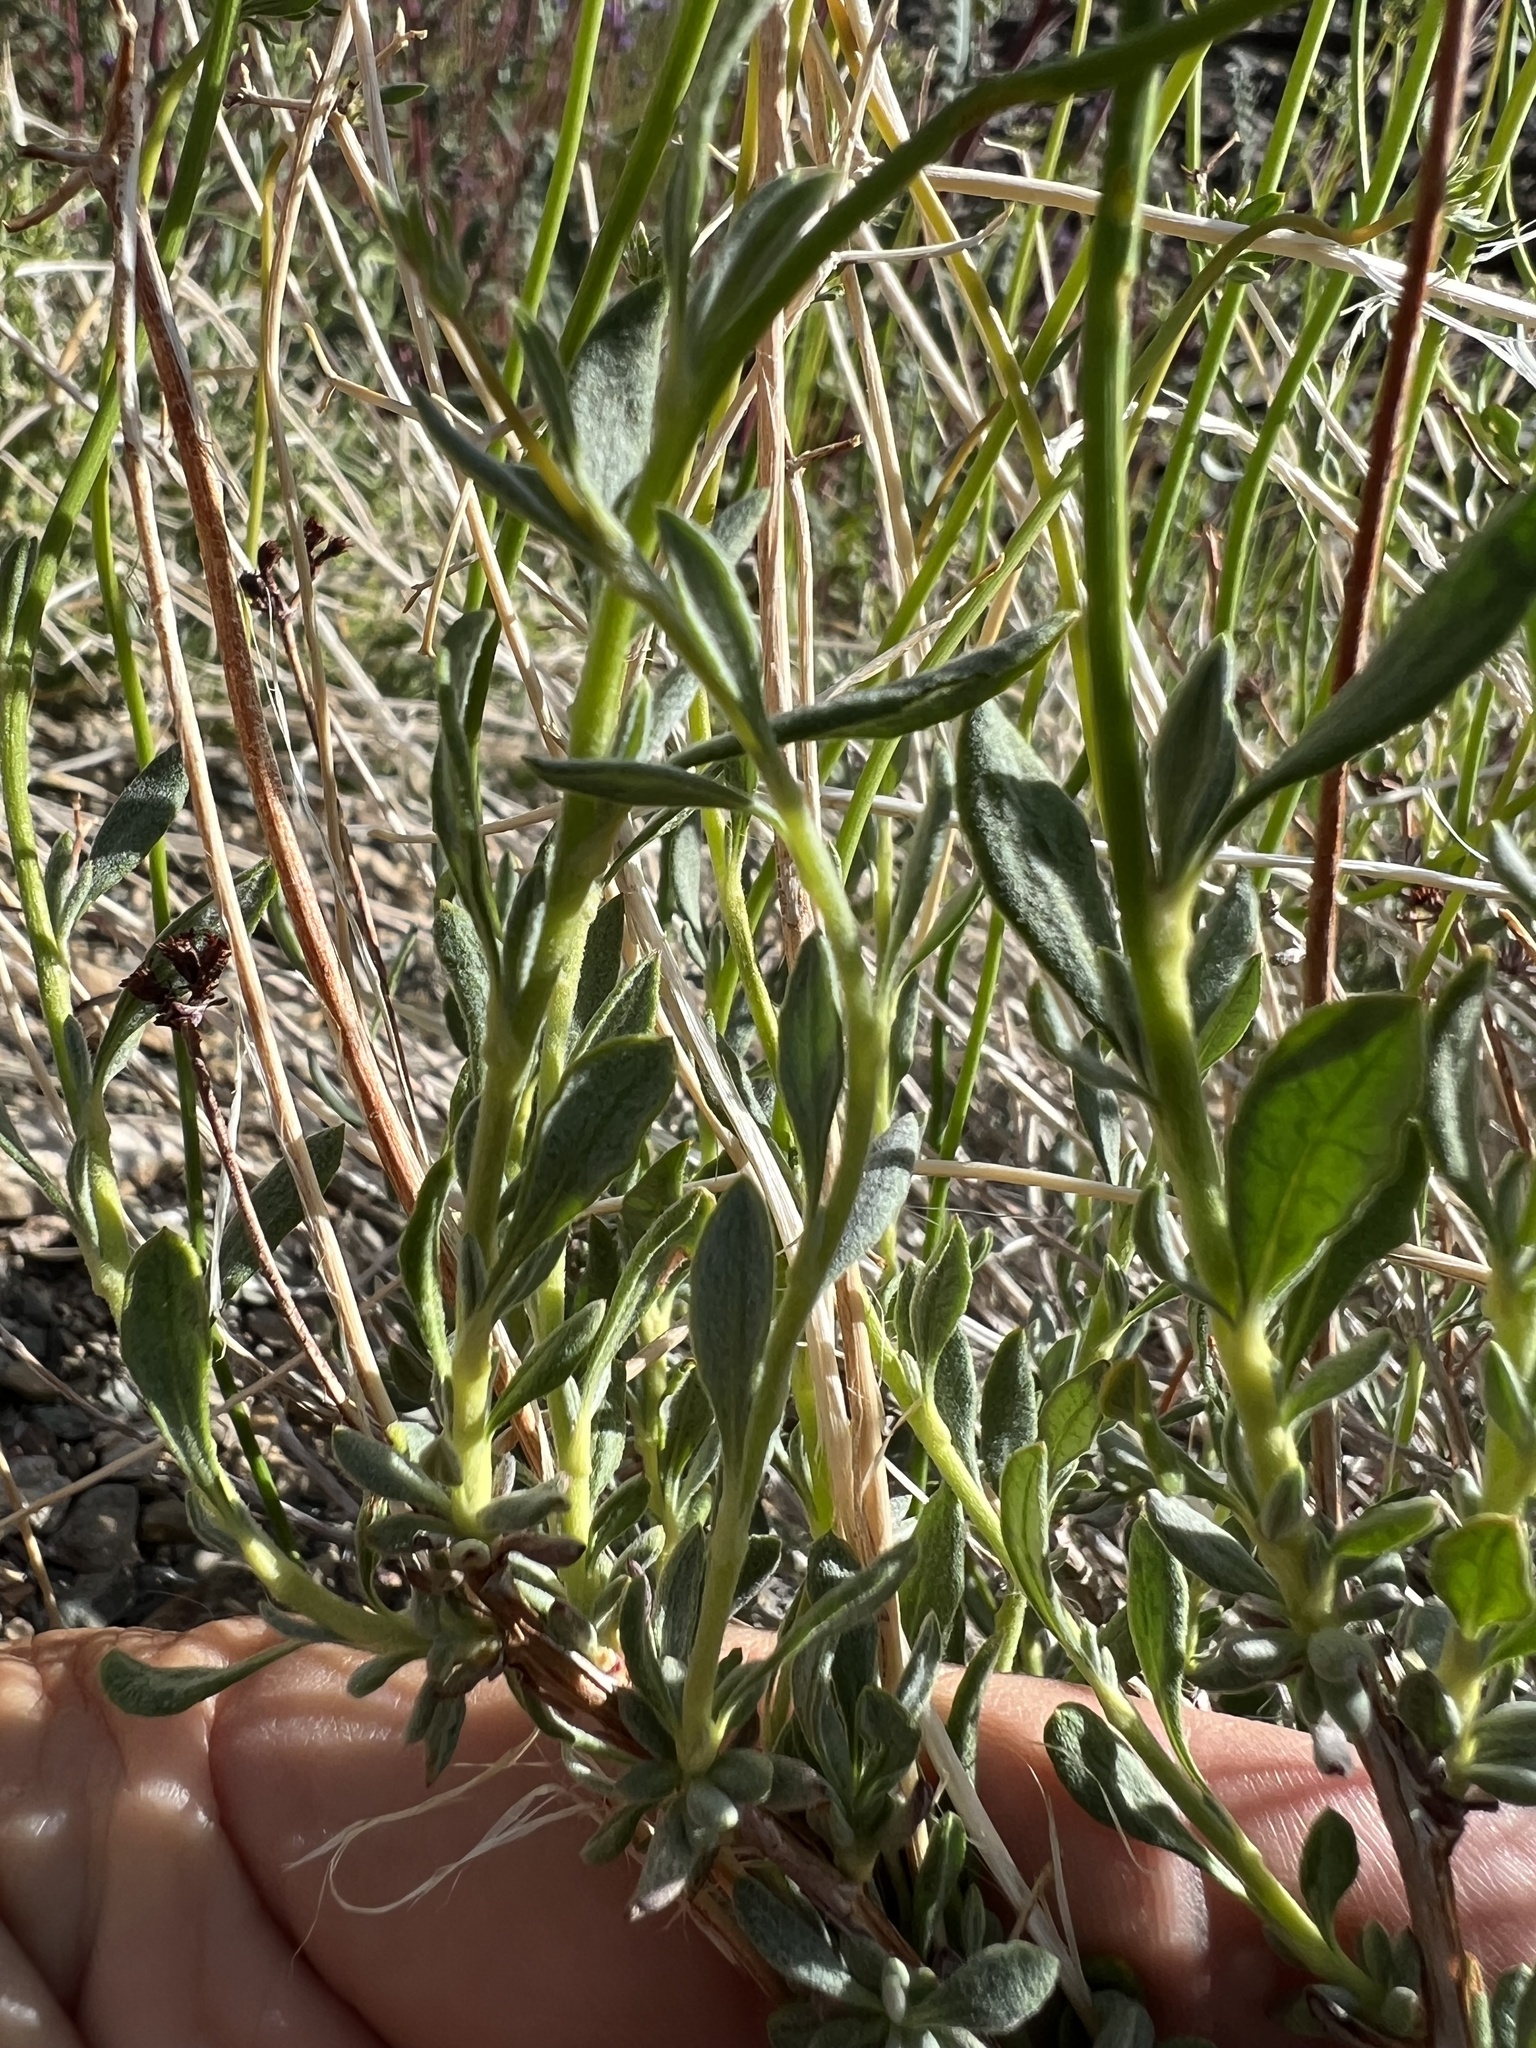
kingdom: Plantae
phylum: Tracheophyta
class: Magnoliopsida
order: Caryophyllales
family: Polygonaceae
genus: Eriogonum
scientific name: Eriogonum fasciculatum
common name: California wild buckwheat
